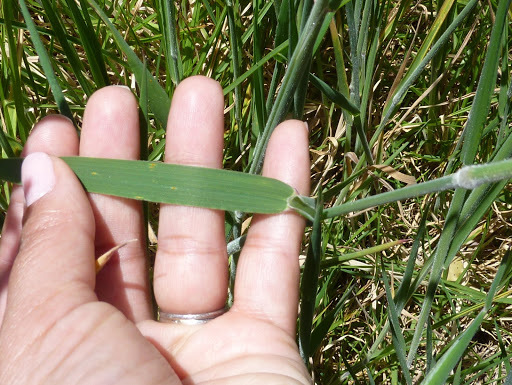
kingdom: Plantae
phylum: Tracheophyta
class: Liliopsida
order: Poales
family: Poaceae
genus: Holcus
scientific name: Holcus lanatus
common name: Yorkshire-fog
